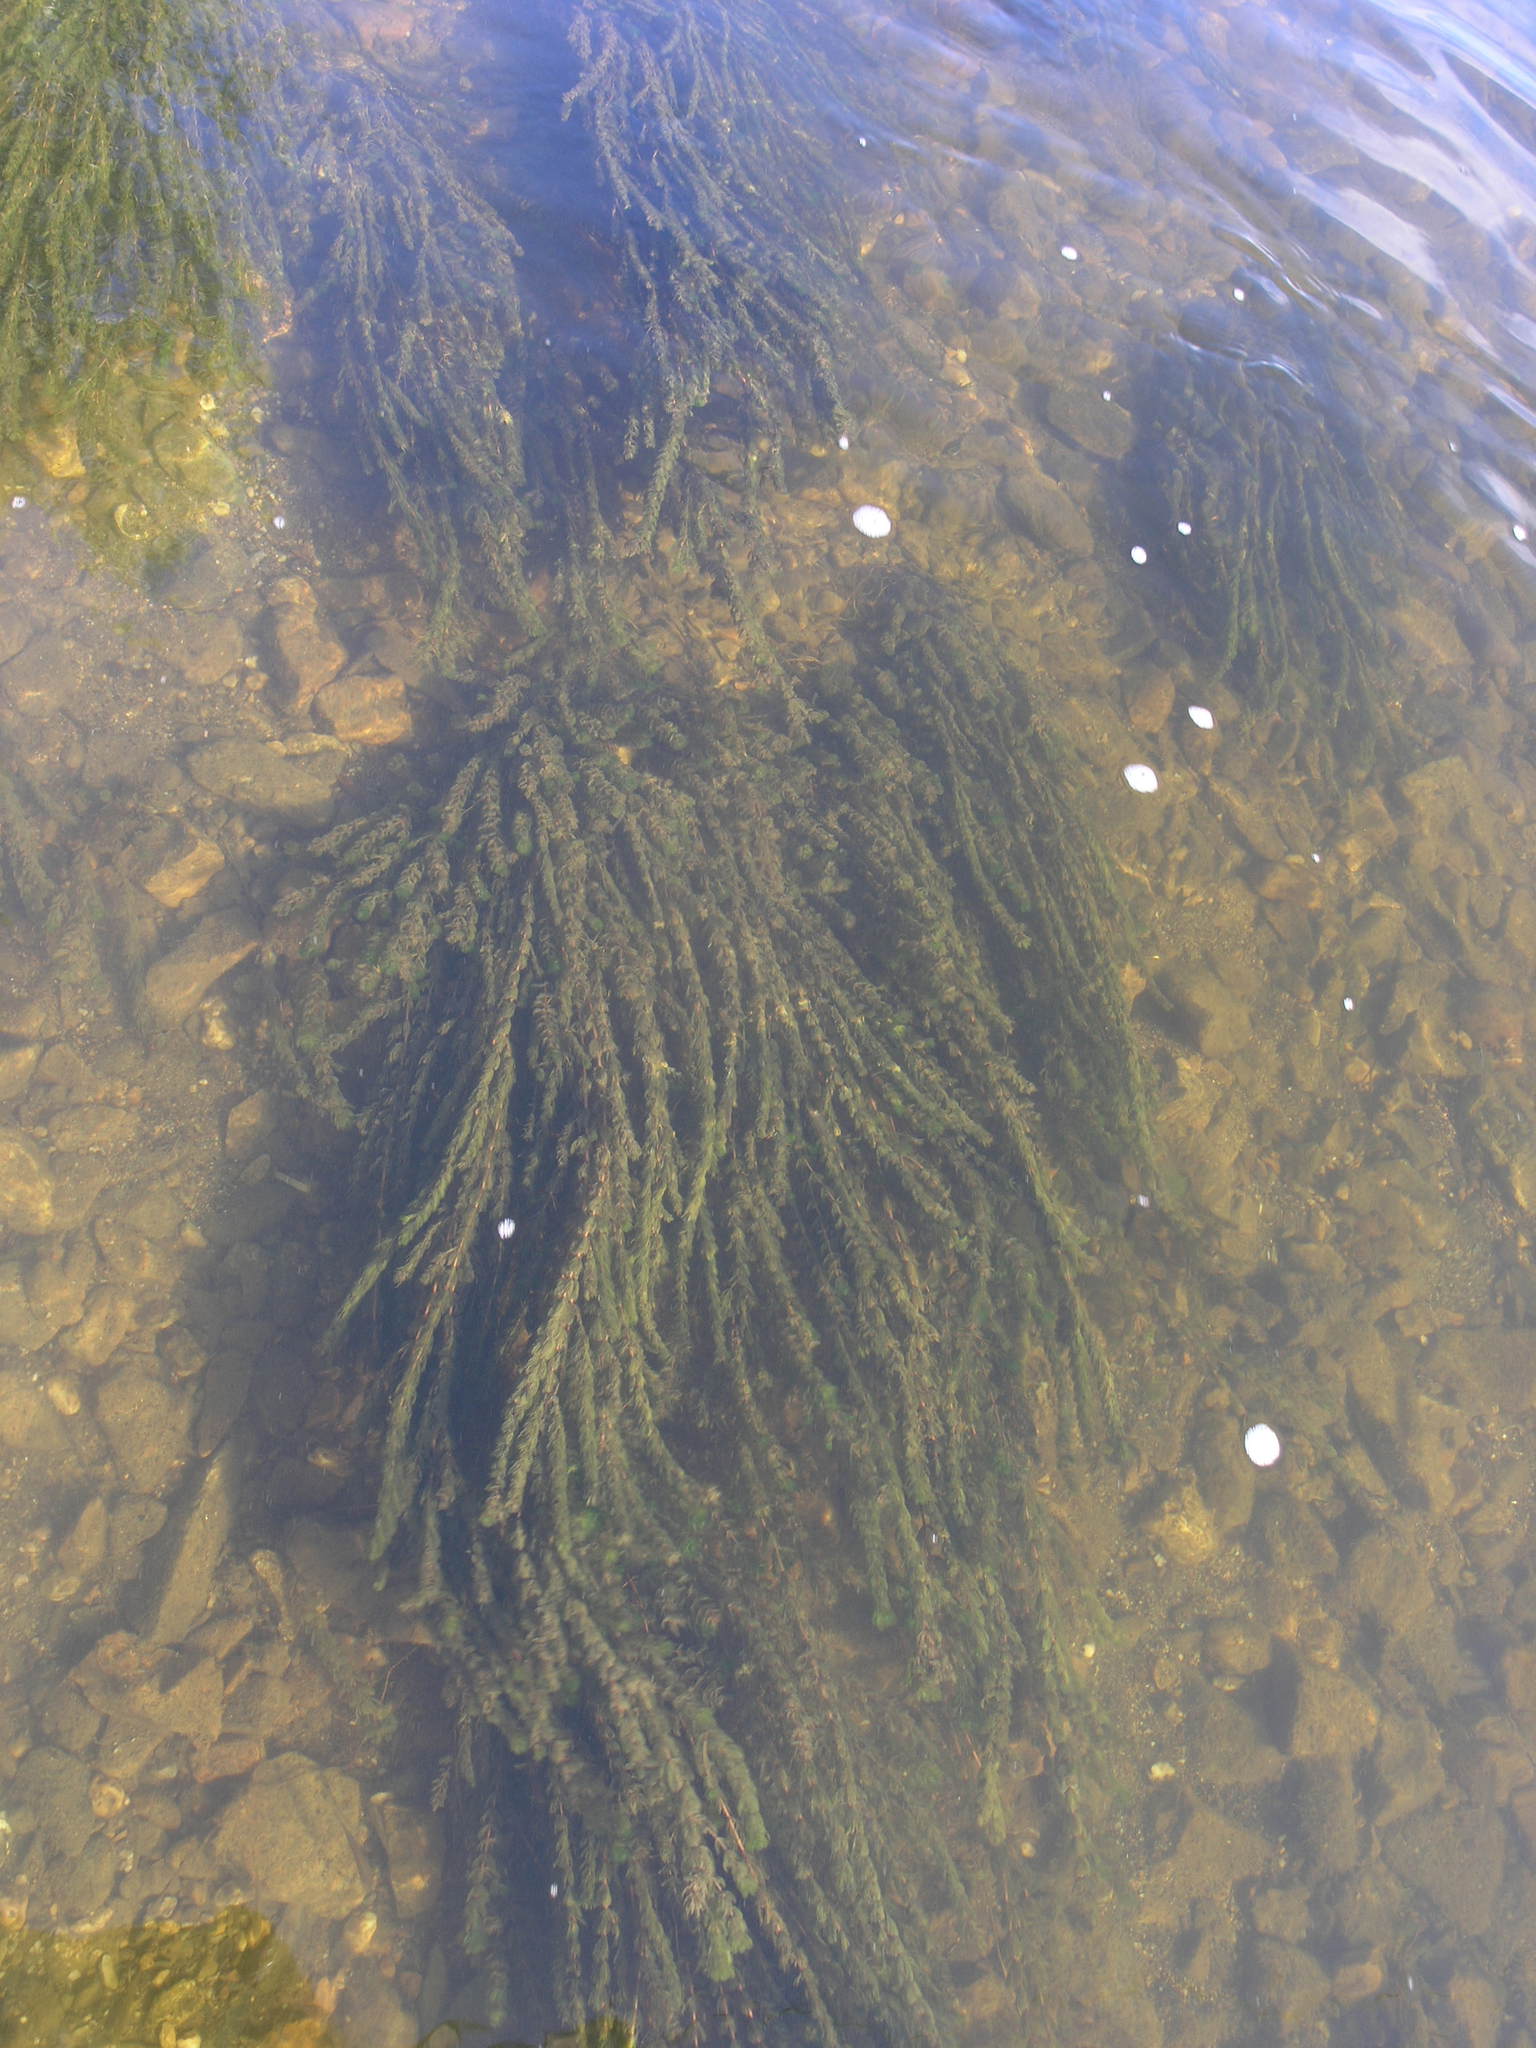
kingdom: Plantae
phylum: Tracheophyta
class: Magnoliopsida
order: Saxifragales
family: Haloragaceae
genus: Myriophyllum
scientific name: Myriophyllum spicatum
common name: Spiked water-milfoil
